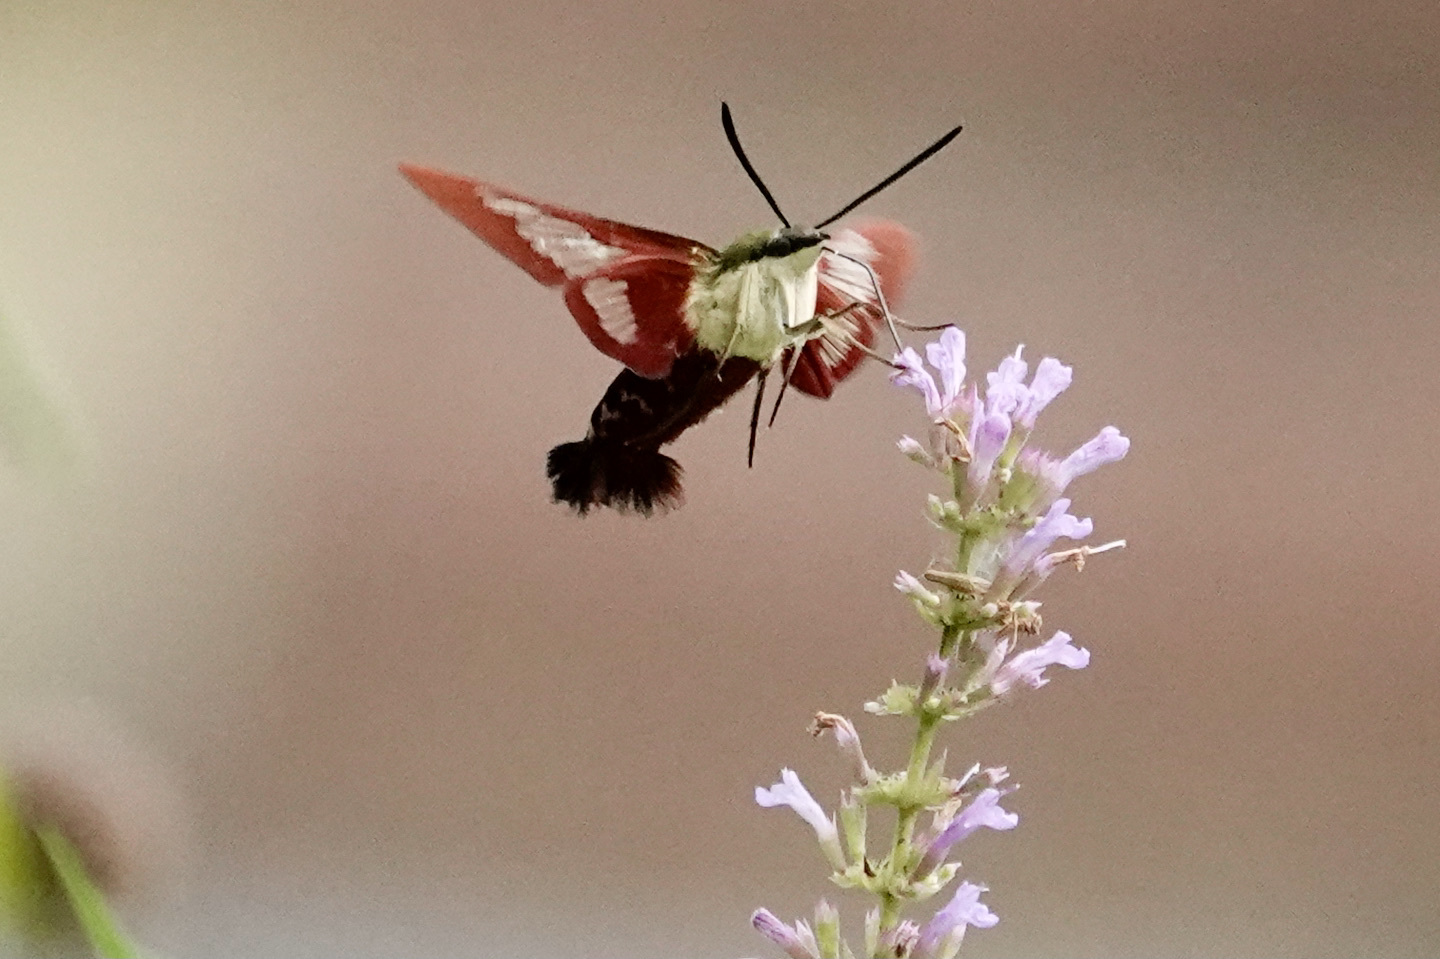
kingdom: Animalia
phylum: Arthropoda
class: Insecta
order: Lepidoptera
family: Sphingidae
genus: Hemaris
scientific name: Hemaris thysbe
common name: Common clear-wing
